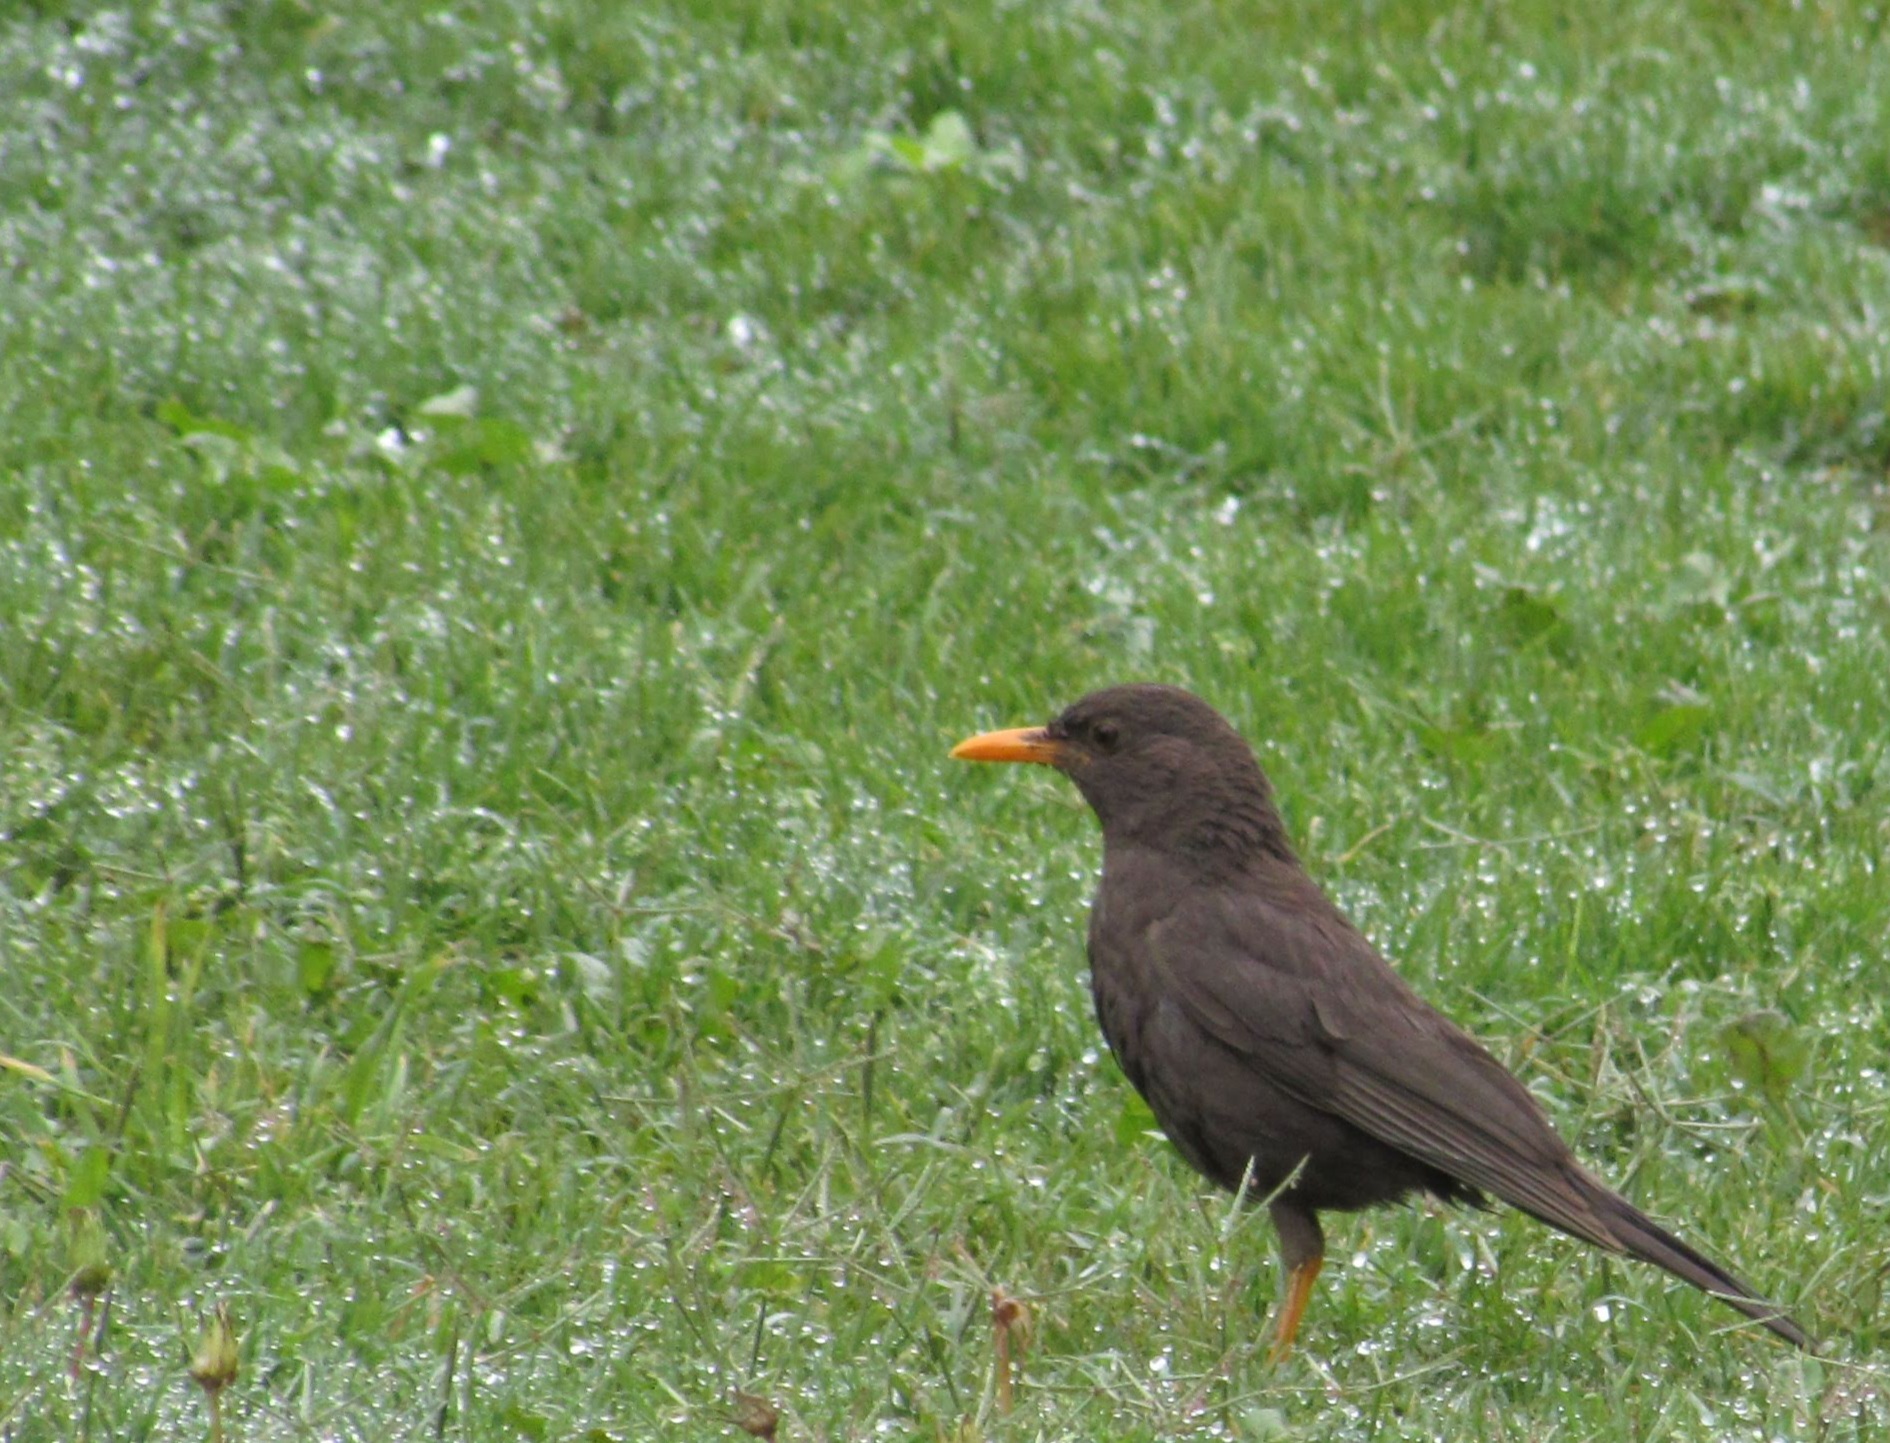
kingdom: Animalia
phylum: Chordata
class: Aves
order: Passeriformes
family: Turdidae
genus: Turdus
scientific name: Turdus chiguanco
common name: Chiguanco thrush
